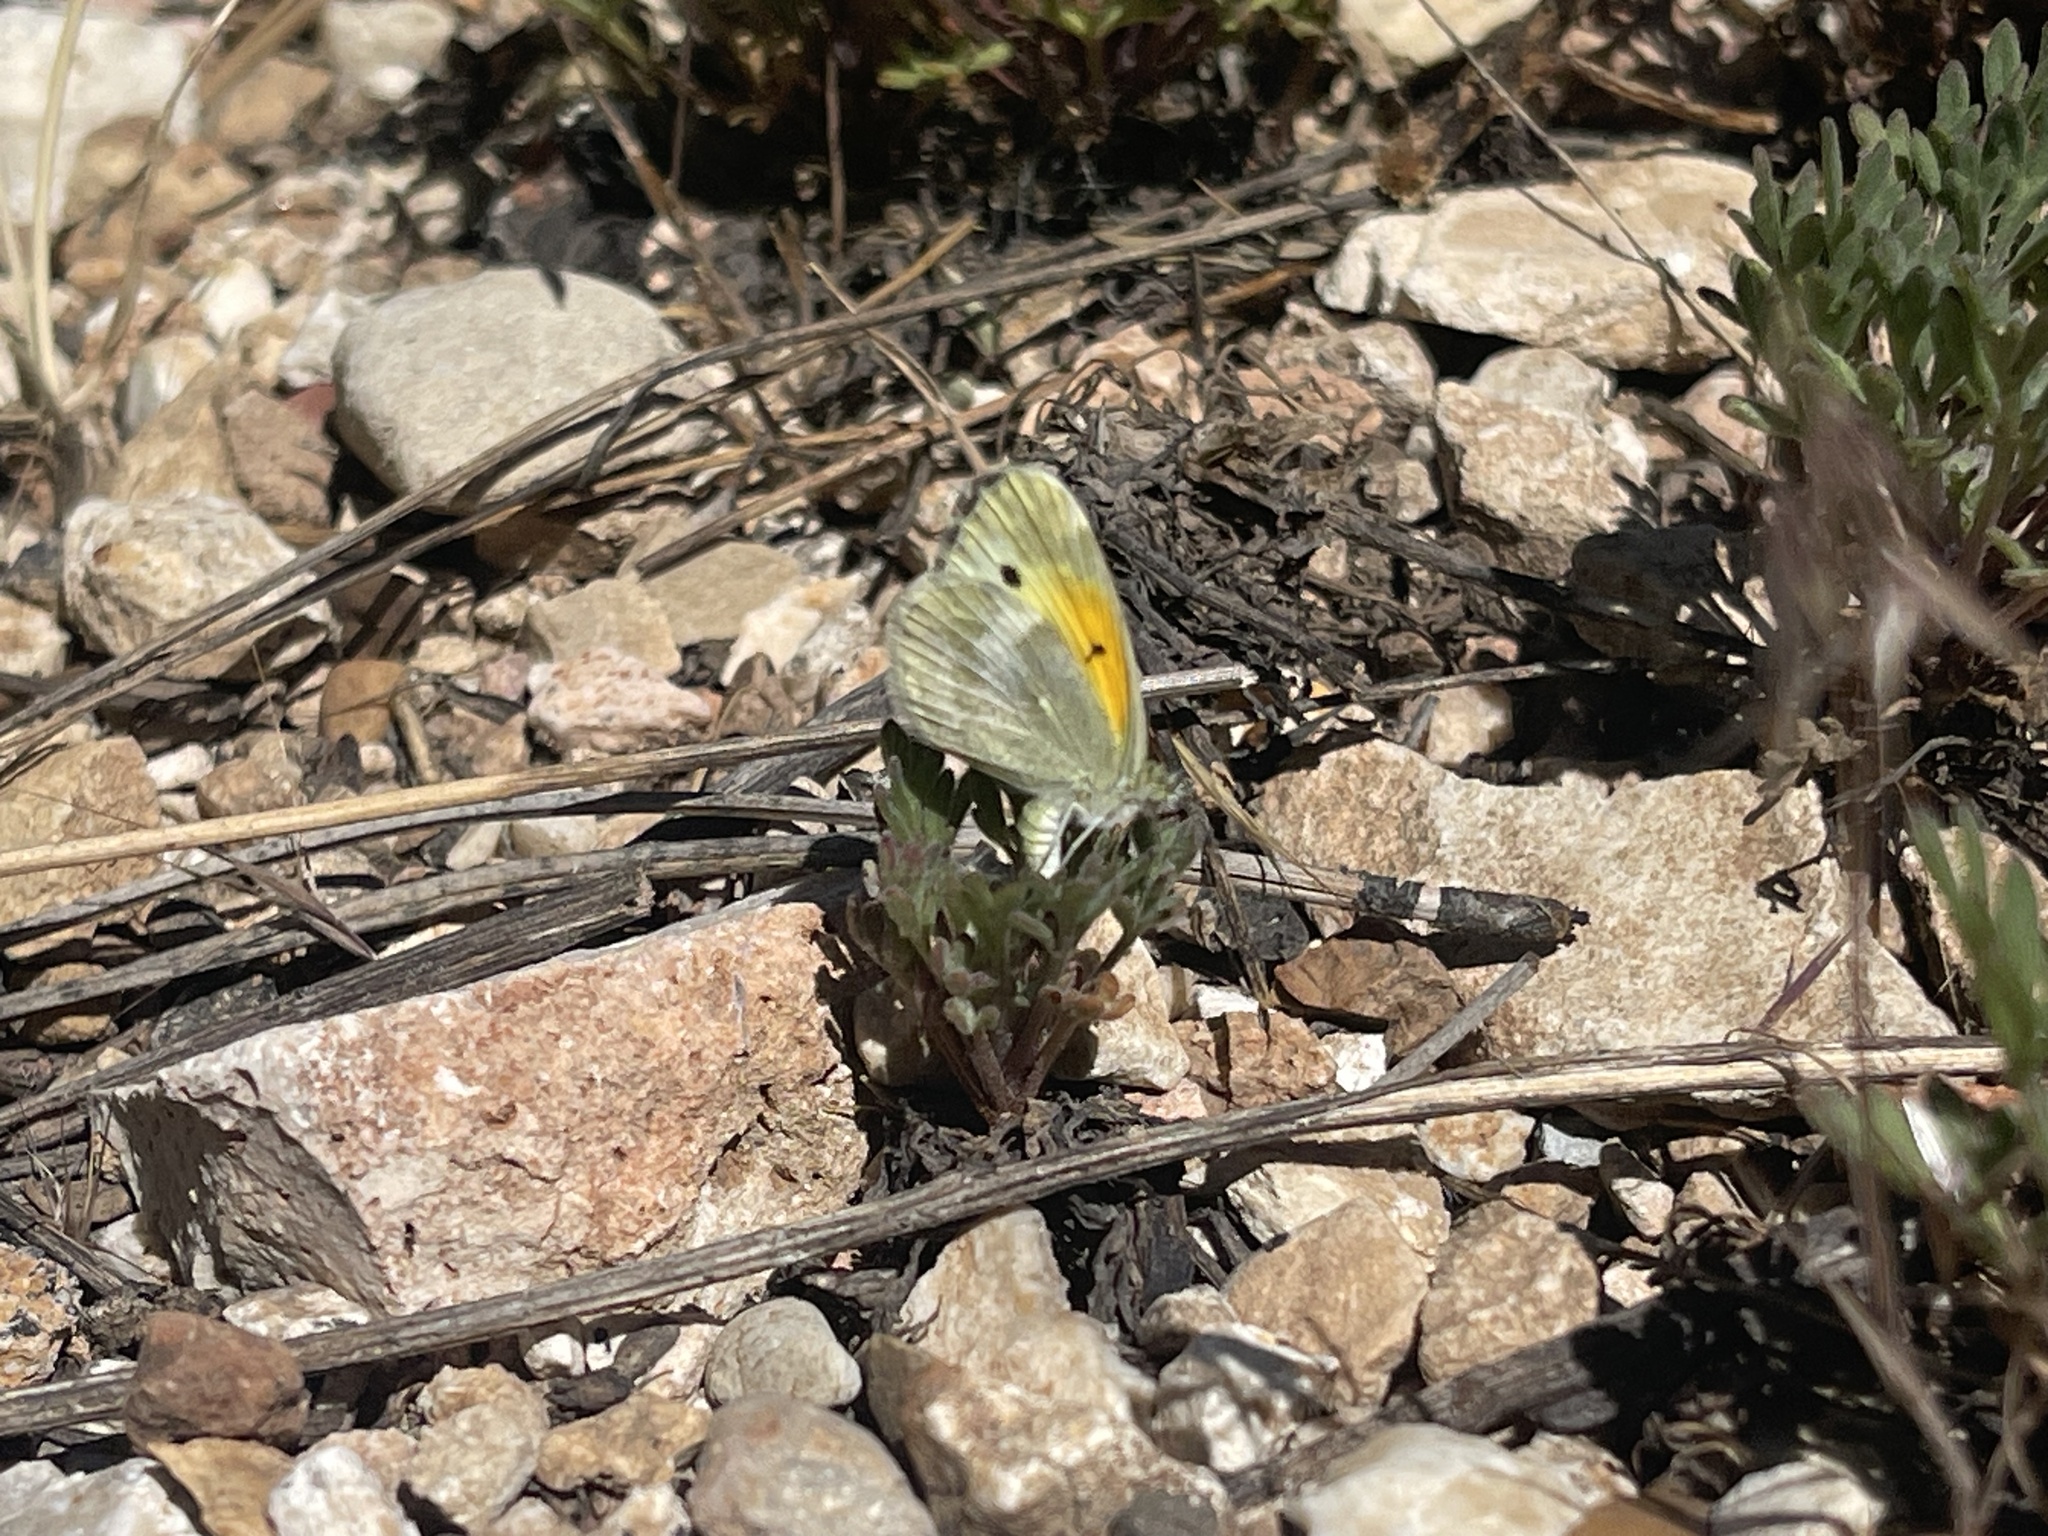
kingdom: Animalia
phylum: Arthropoda
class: Insecta
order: Lepidoptera
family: Pieridae
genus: Nathalis
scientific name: Nathalis iole
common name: Dainty sulphur
